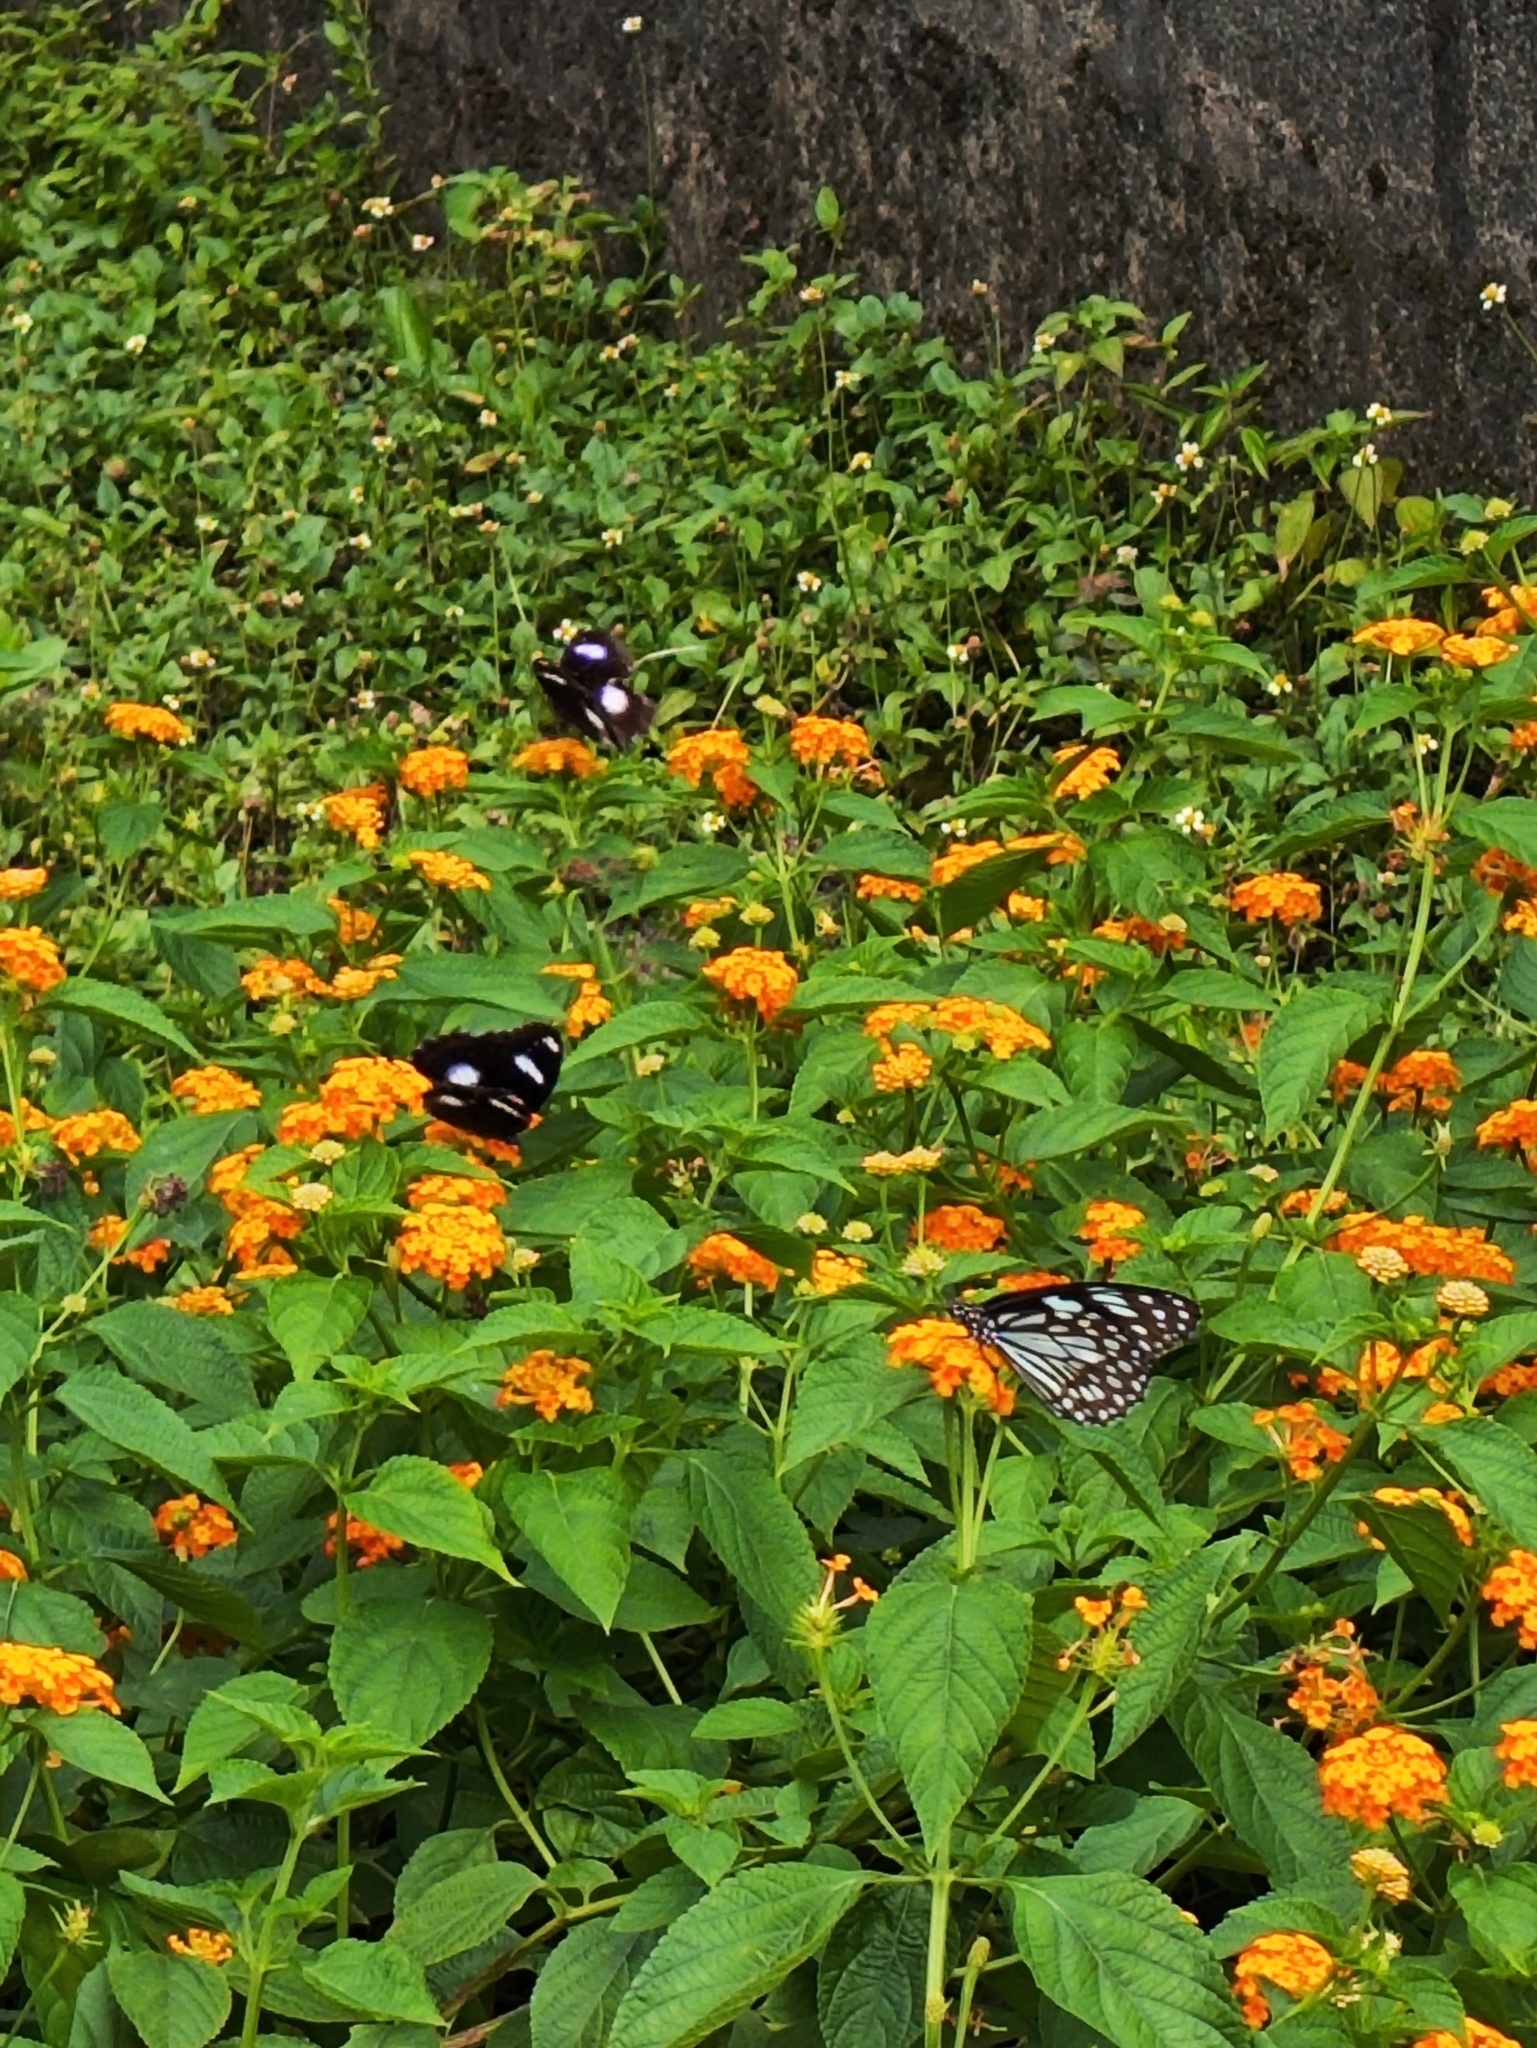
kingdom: Animalia
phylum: Arthropoda
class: Insecta
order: Lepidoptera
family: Nymphalidae
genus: Hypolimnas
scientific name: Hypolimnas bolina
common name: Great eggfly
